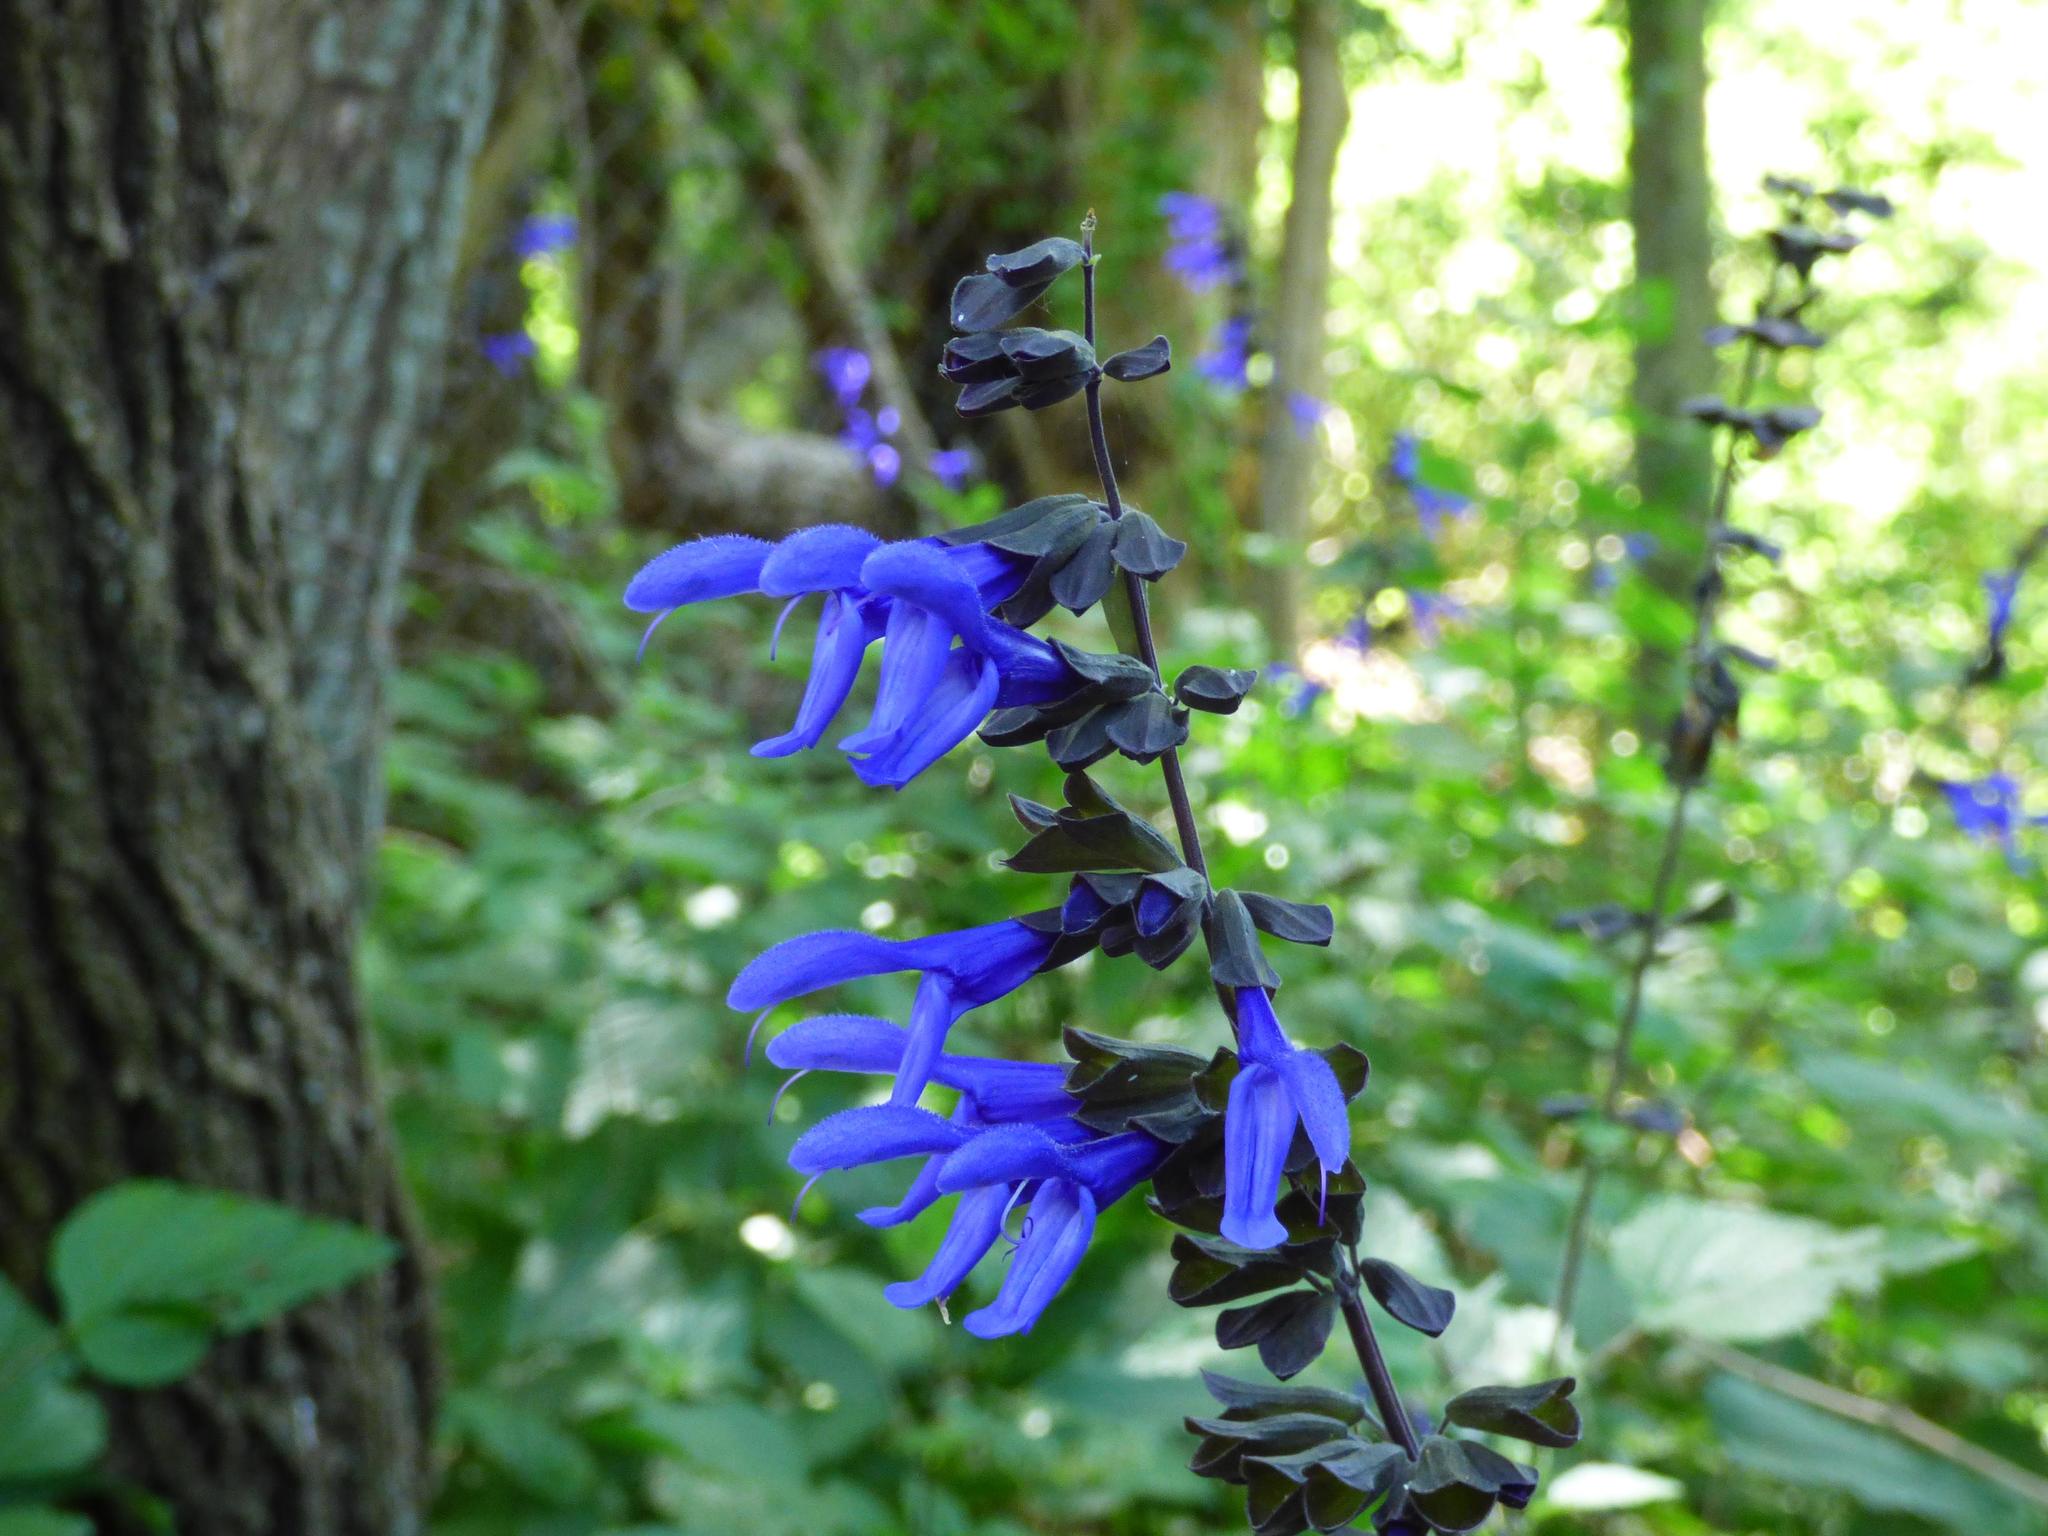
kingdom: Plantae
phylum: Tracheophyta
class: Magnoliopsida
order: Lamiales
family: Lamiaceae
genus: Salvia
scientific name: Salvia guaranitica
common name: Anise-scented sage
